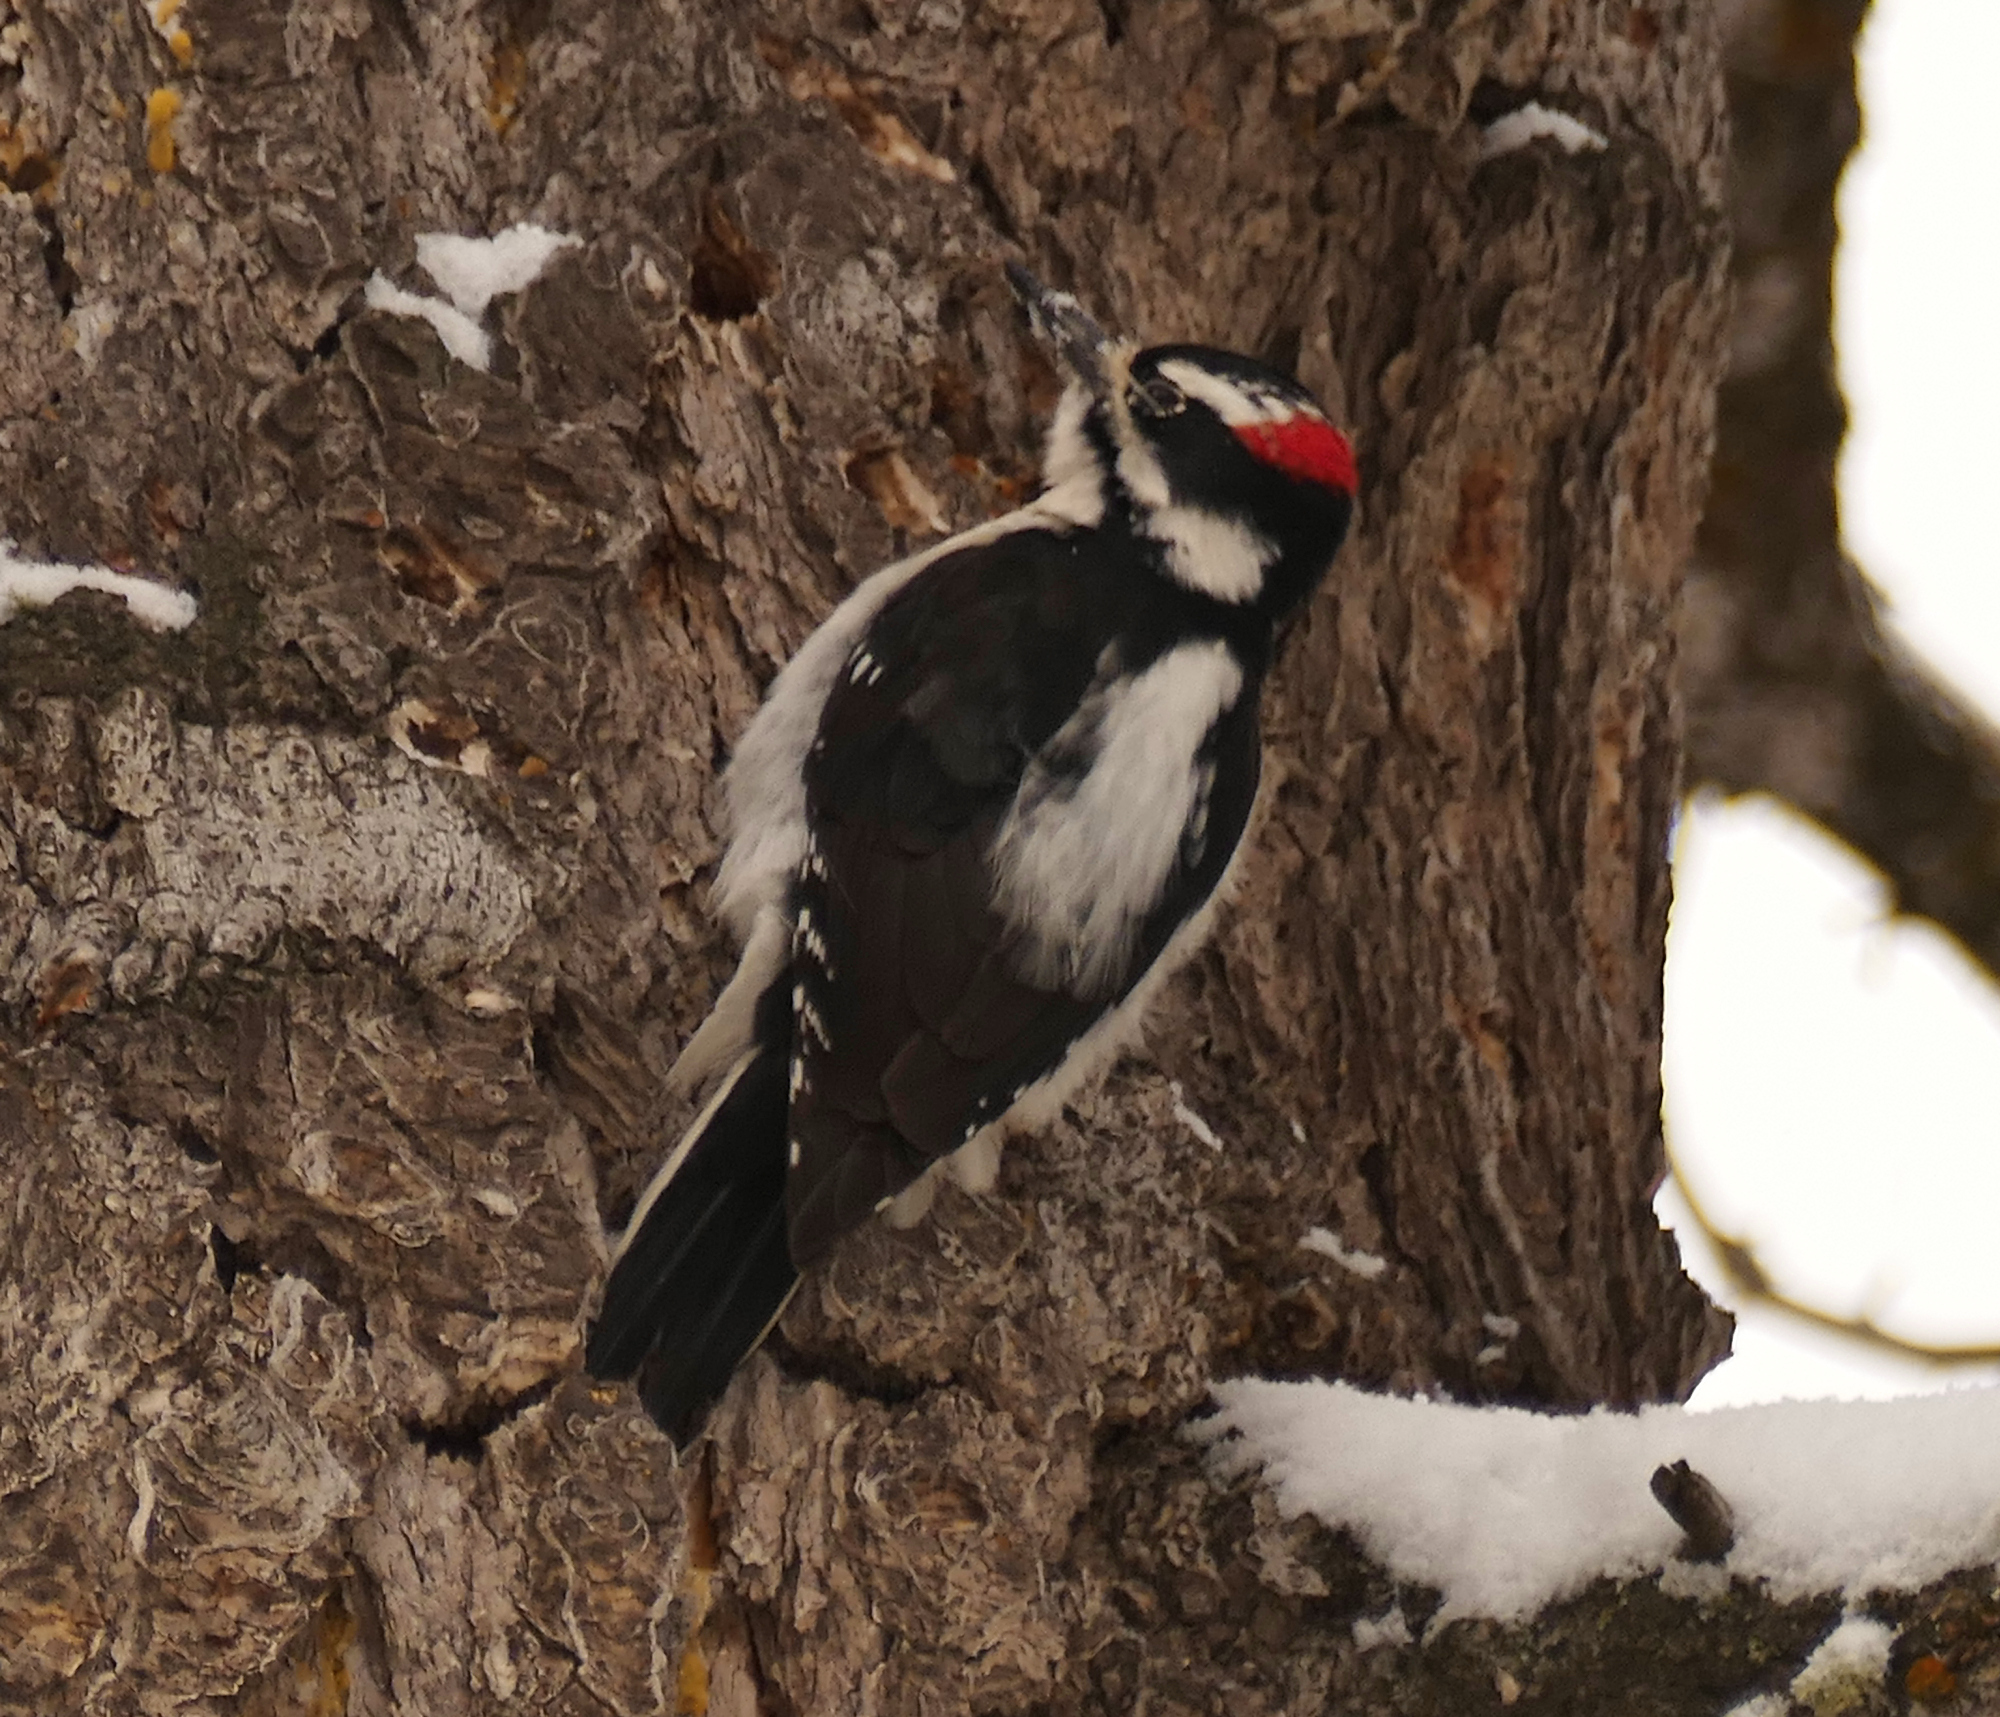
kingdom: Animalia
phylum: Chordata
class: Aves
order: Piciformes
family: Picidae
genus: Leuconotopicus
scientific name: Leuconotopicus villosus
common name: Hairy woodpecker
